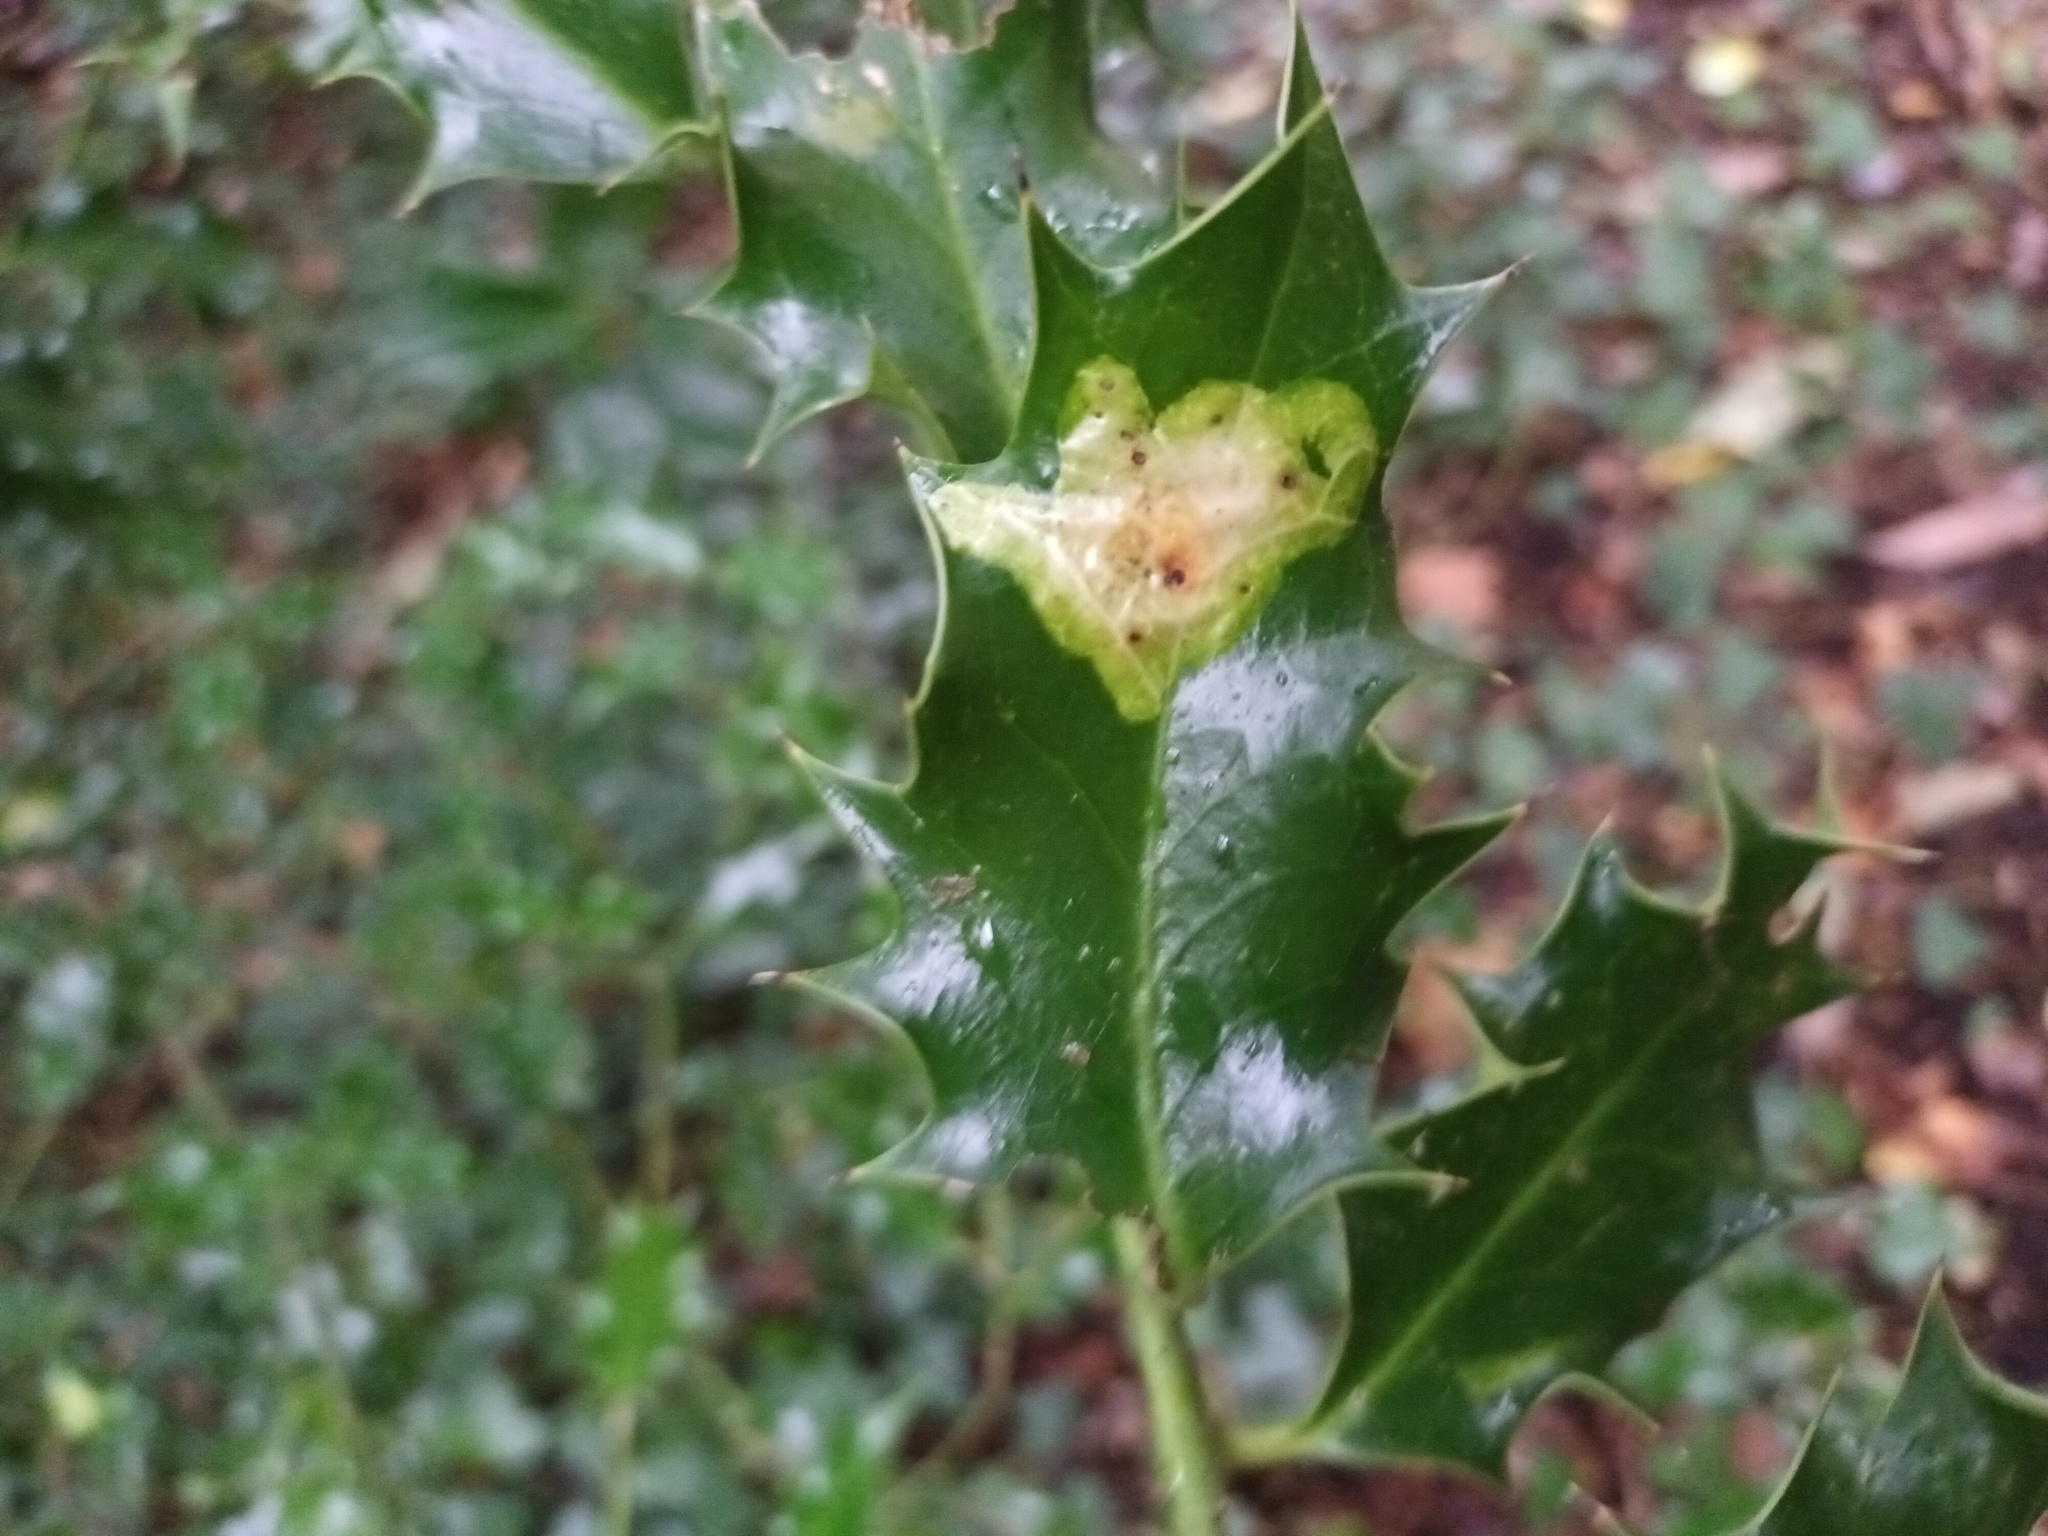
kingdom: Animalia
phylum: Arthropoda
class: Insecta
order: Diptera
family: Agromyzidae
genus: Phytomyza
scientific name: Phytomyza ilicis
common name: Holly leafminer
